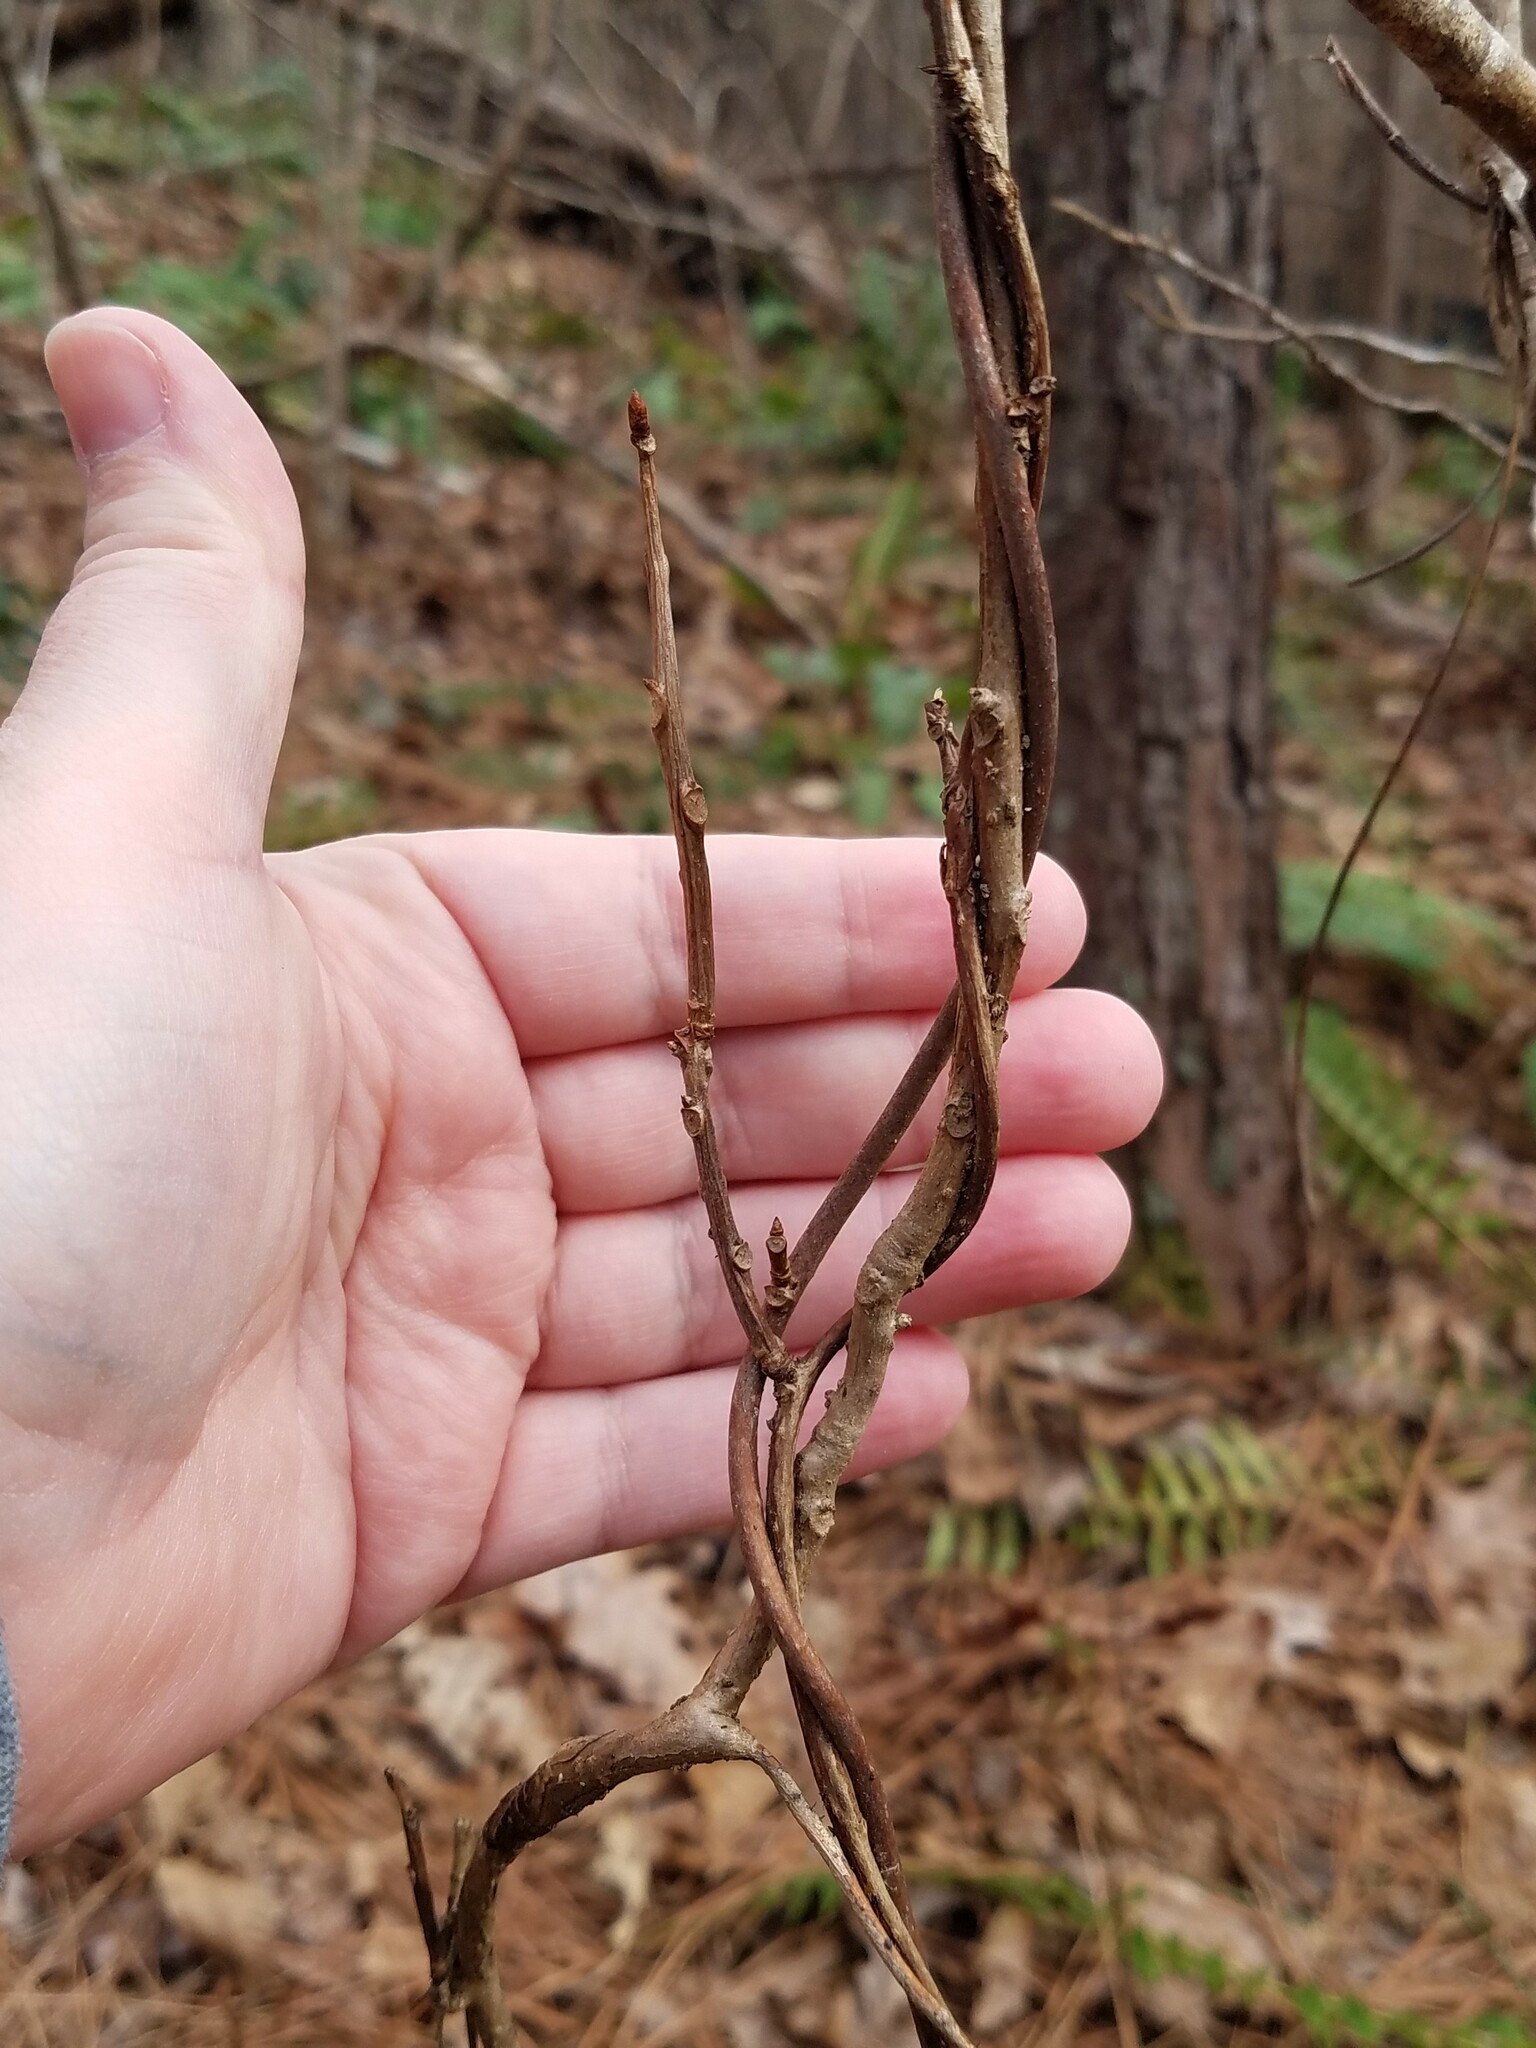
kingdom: Plantae
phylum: Tracheophyta
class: Magnoliopsida
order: Austrobaileyales
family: Schisandraceae
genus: Schisandra
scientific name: Schisandra glabra
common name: Bay-starvine
